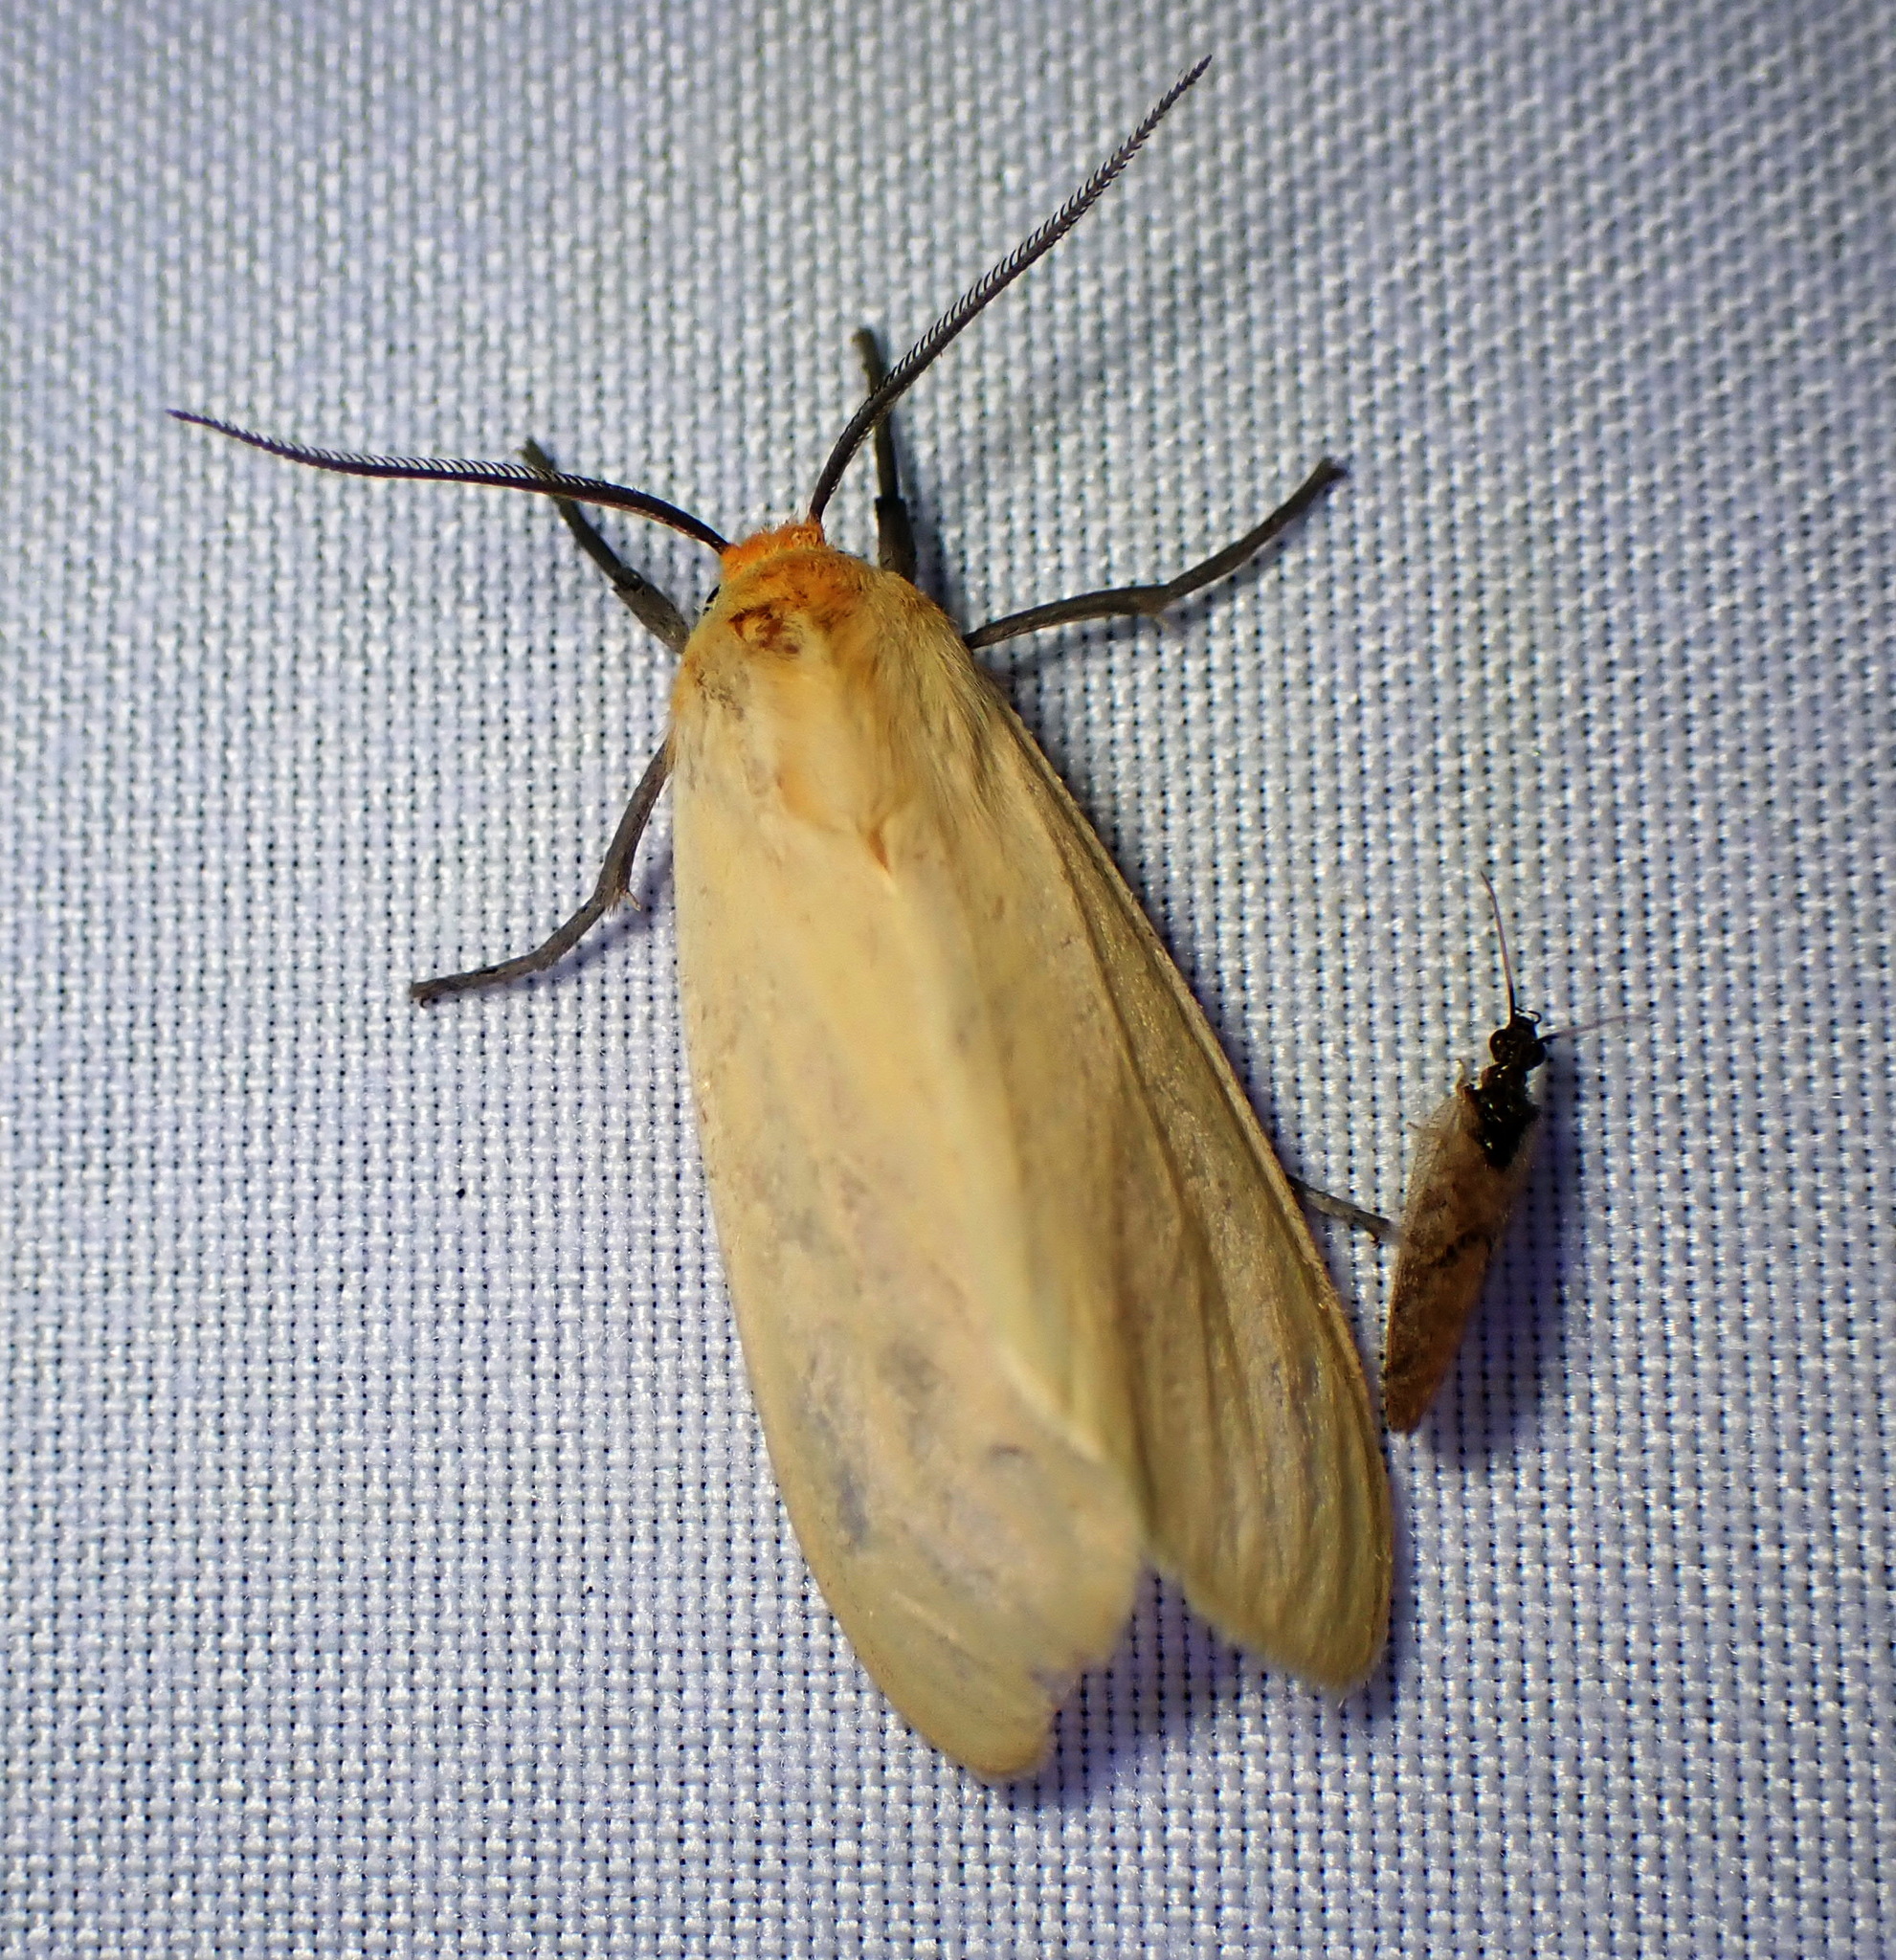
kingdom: Animalia
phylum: Arthropoda
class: Insecta
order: Lepidoptera
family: Erebidae
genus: Pareuchaetes
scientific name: Pareuchaetes insulata
